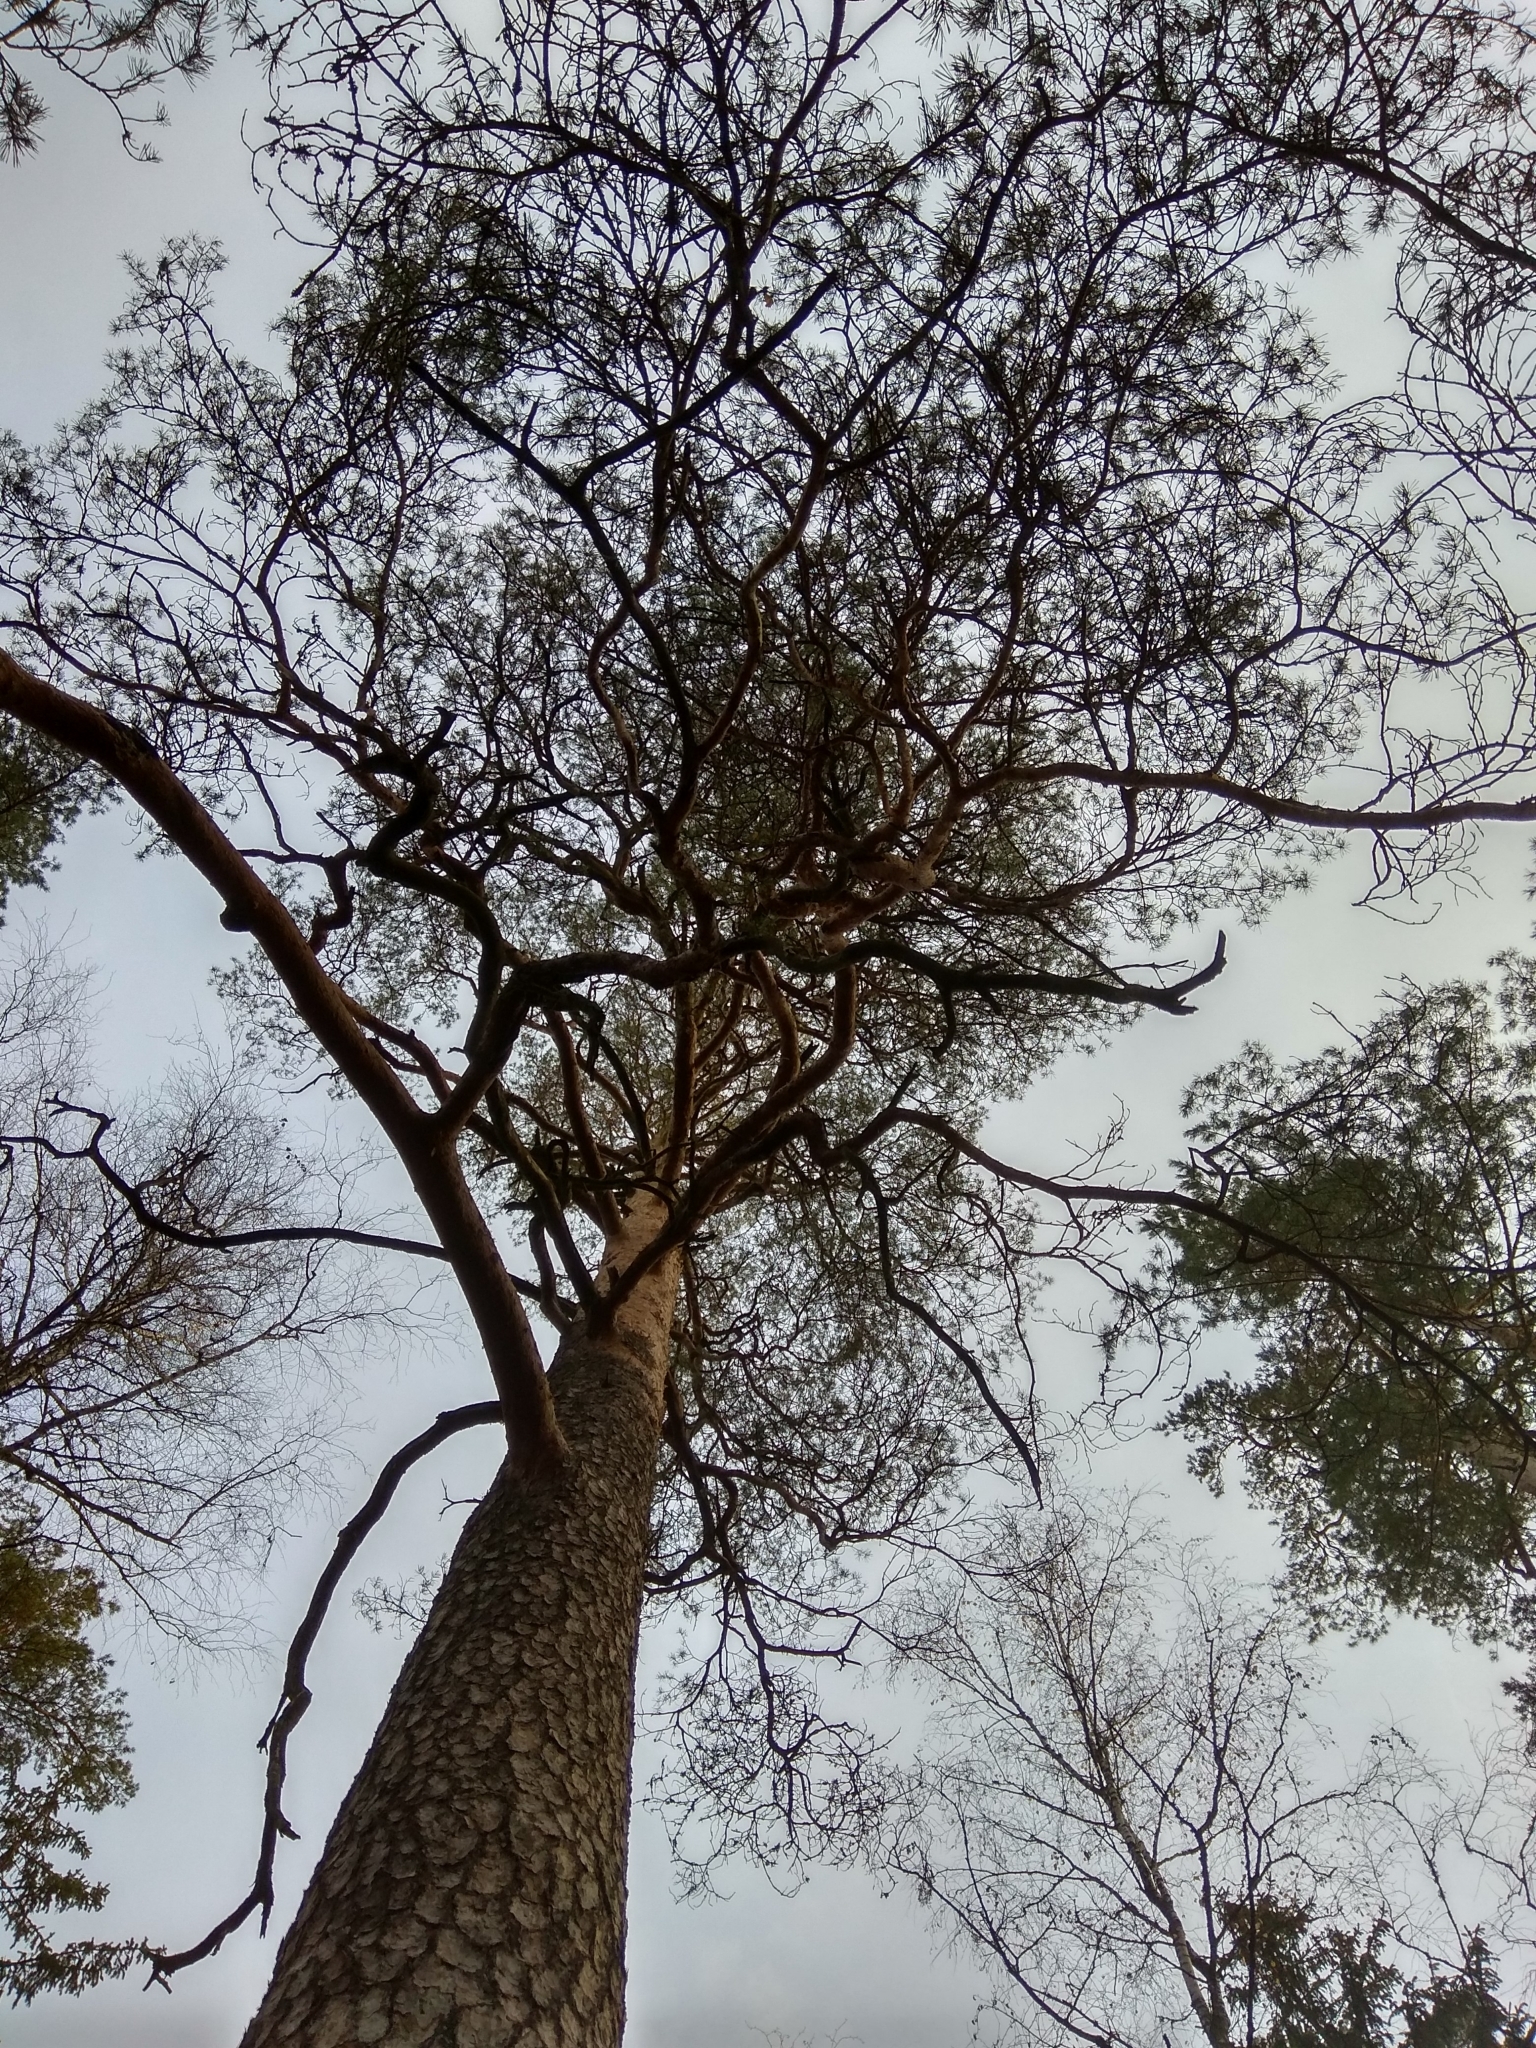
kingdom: Plantae
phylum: Tracheophyta
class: Pinopsida
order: Pinales
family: Pinaceae
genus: Pinus
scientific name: Pinus sylvestris
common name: Scots pine
